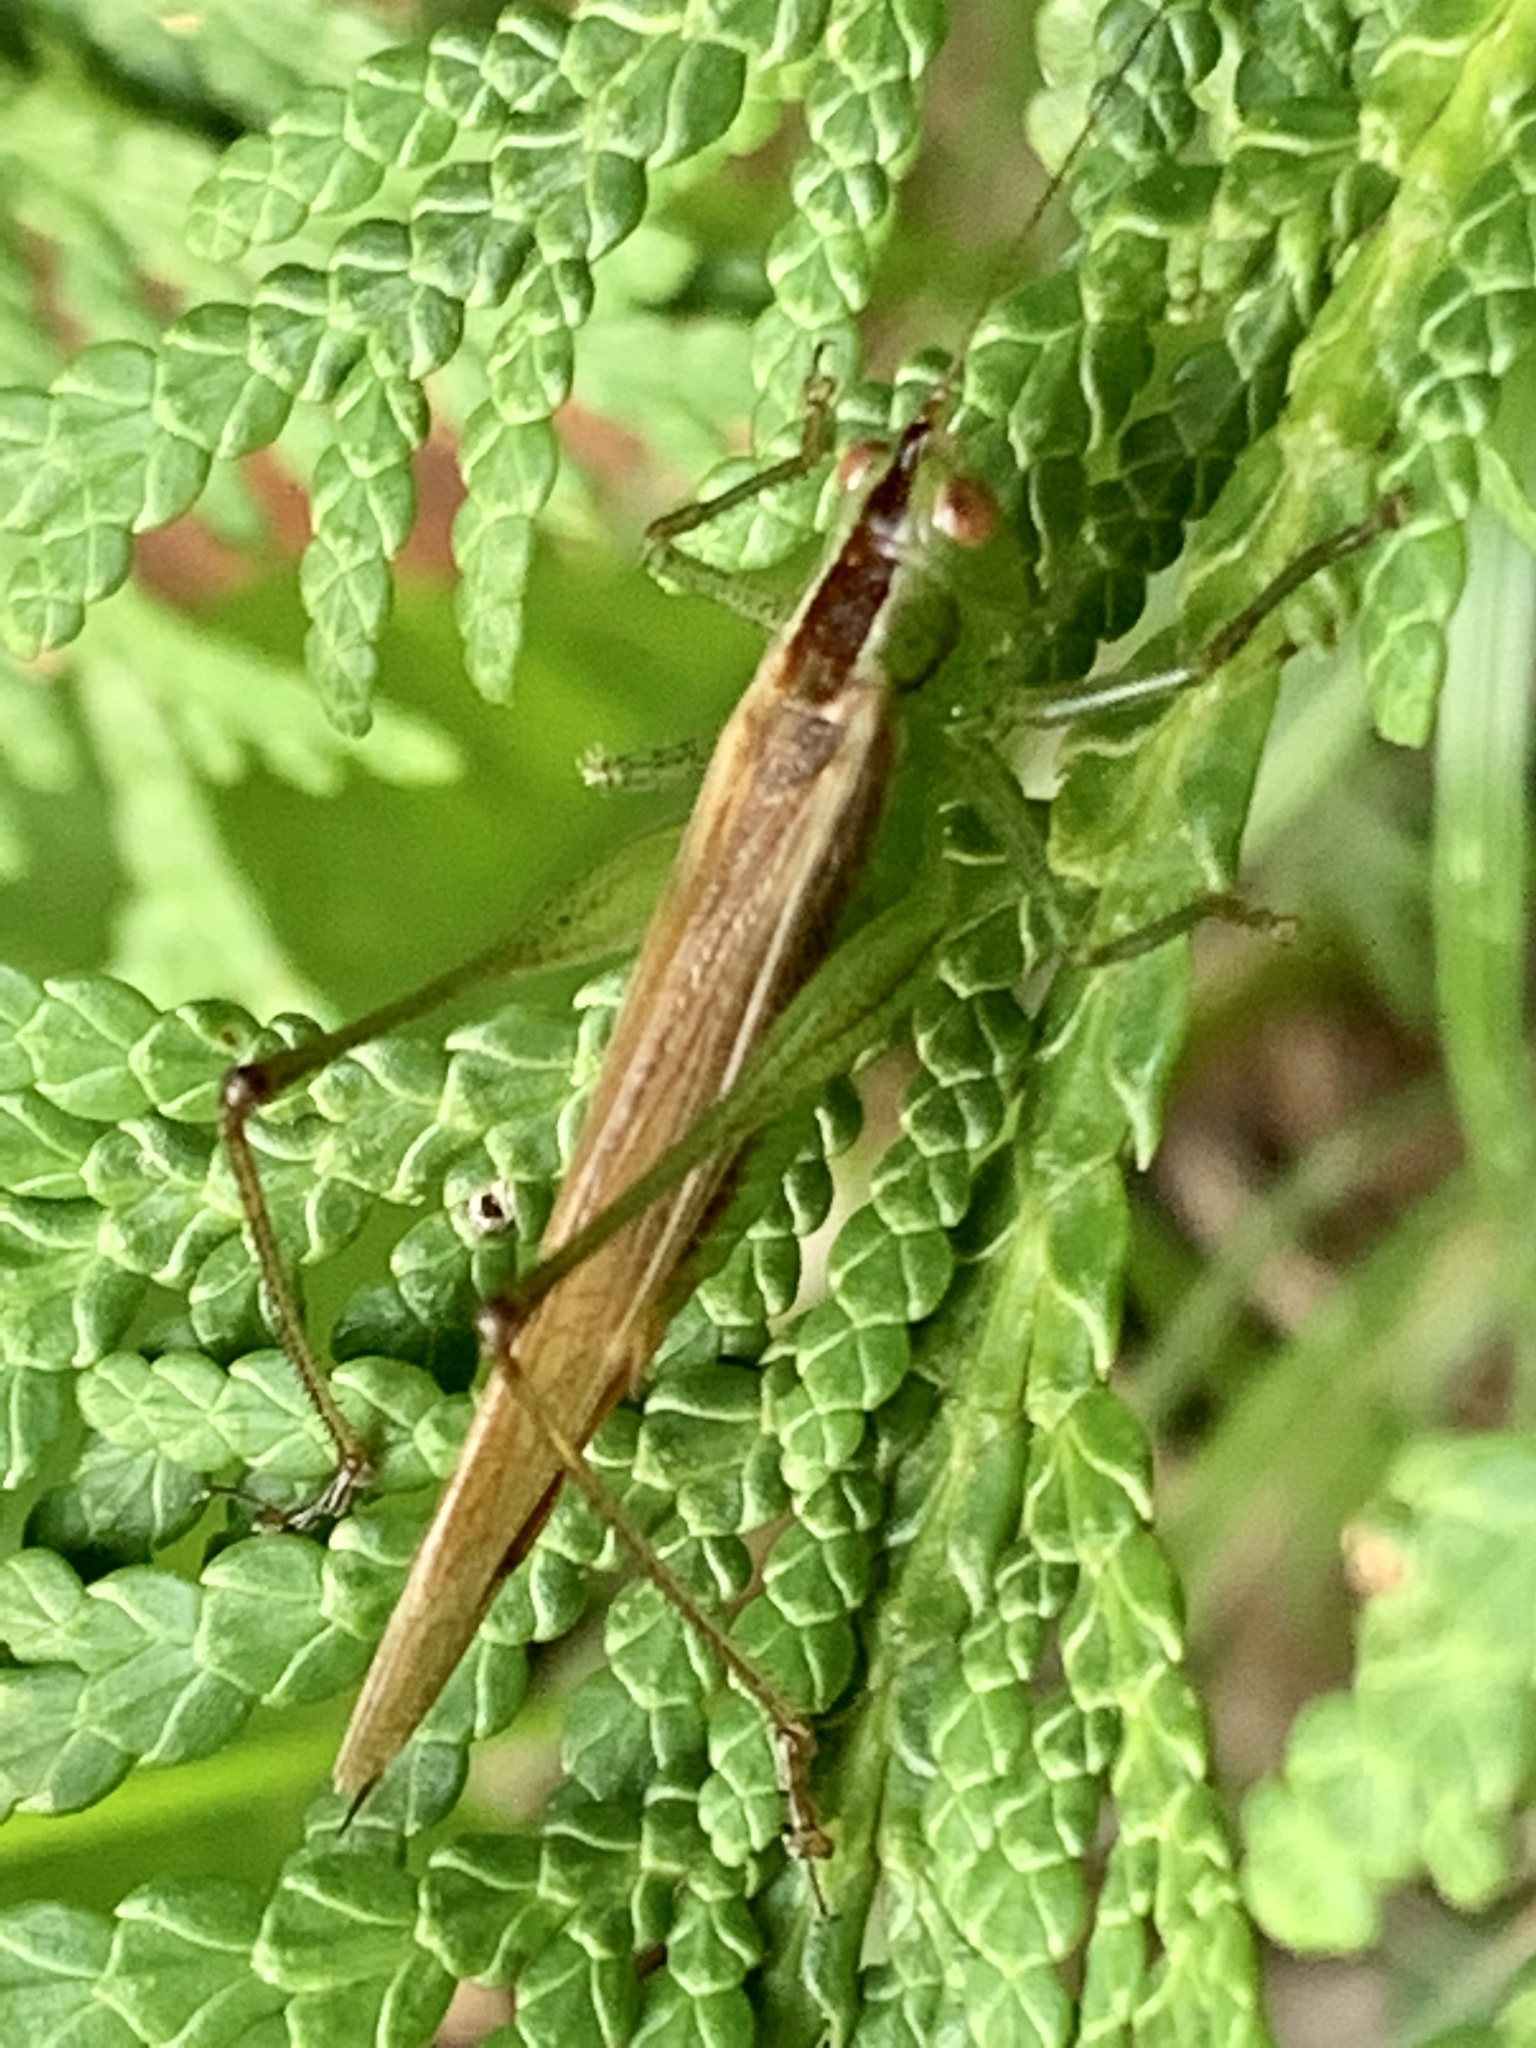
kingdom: Animalia
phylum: Arthropoda
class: Insecta
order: Orthoptera
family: Tettigoniidae
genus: Conocephalus
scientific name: Conocephalus fasciatus
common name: Slender meadow katydid
